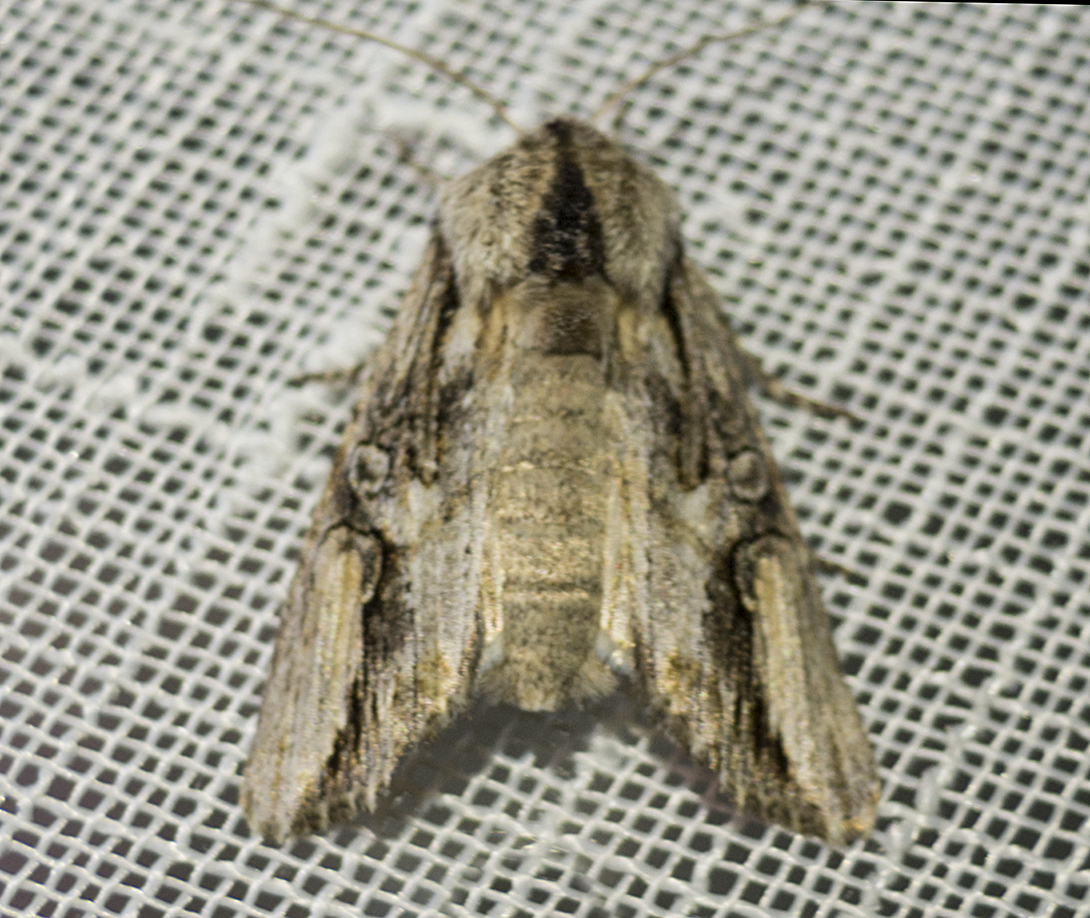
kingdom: Animalia
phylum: Arthropoda
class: Insecta
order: Lepidoptera
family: Noctuidae
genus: Egira
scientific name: Egira conspicillaris
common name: Silver cloud
